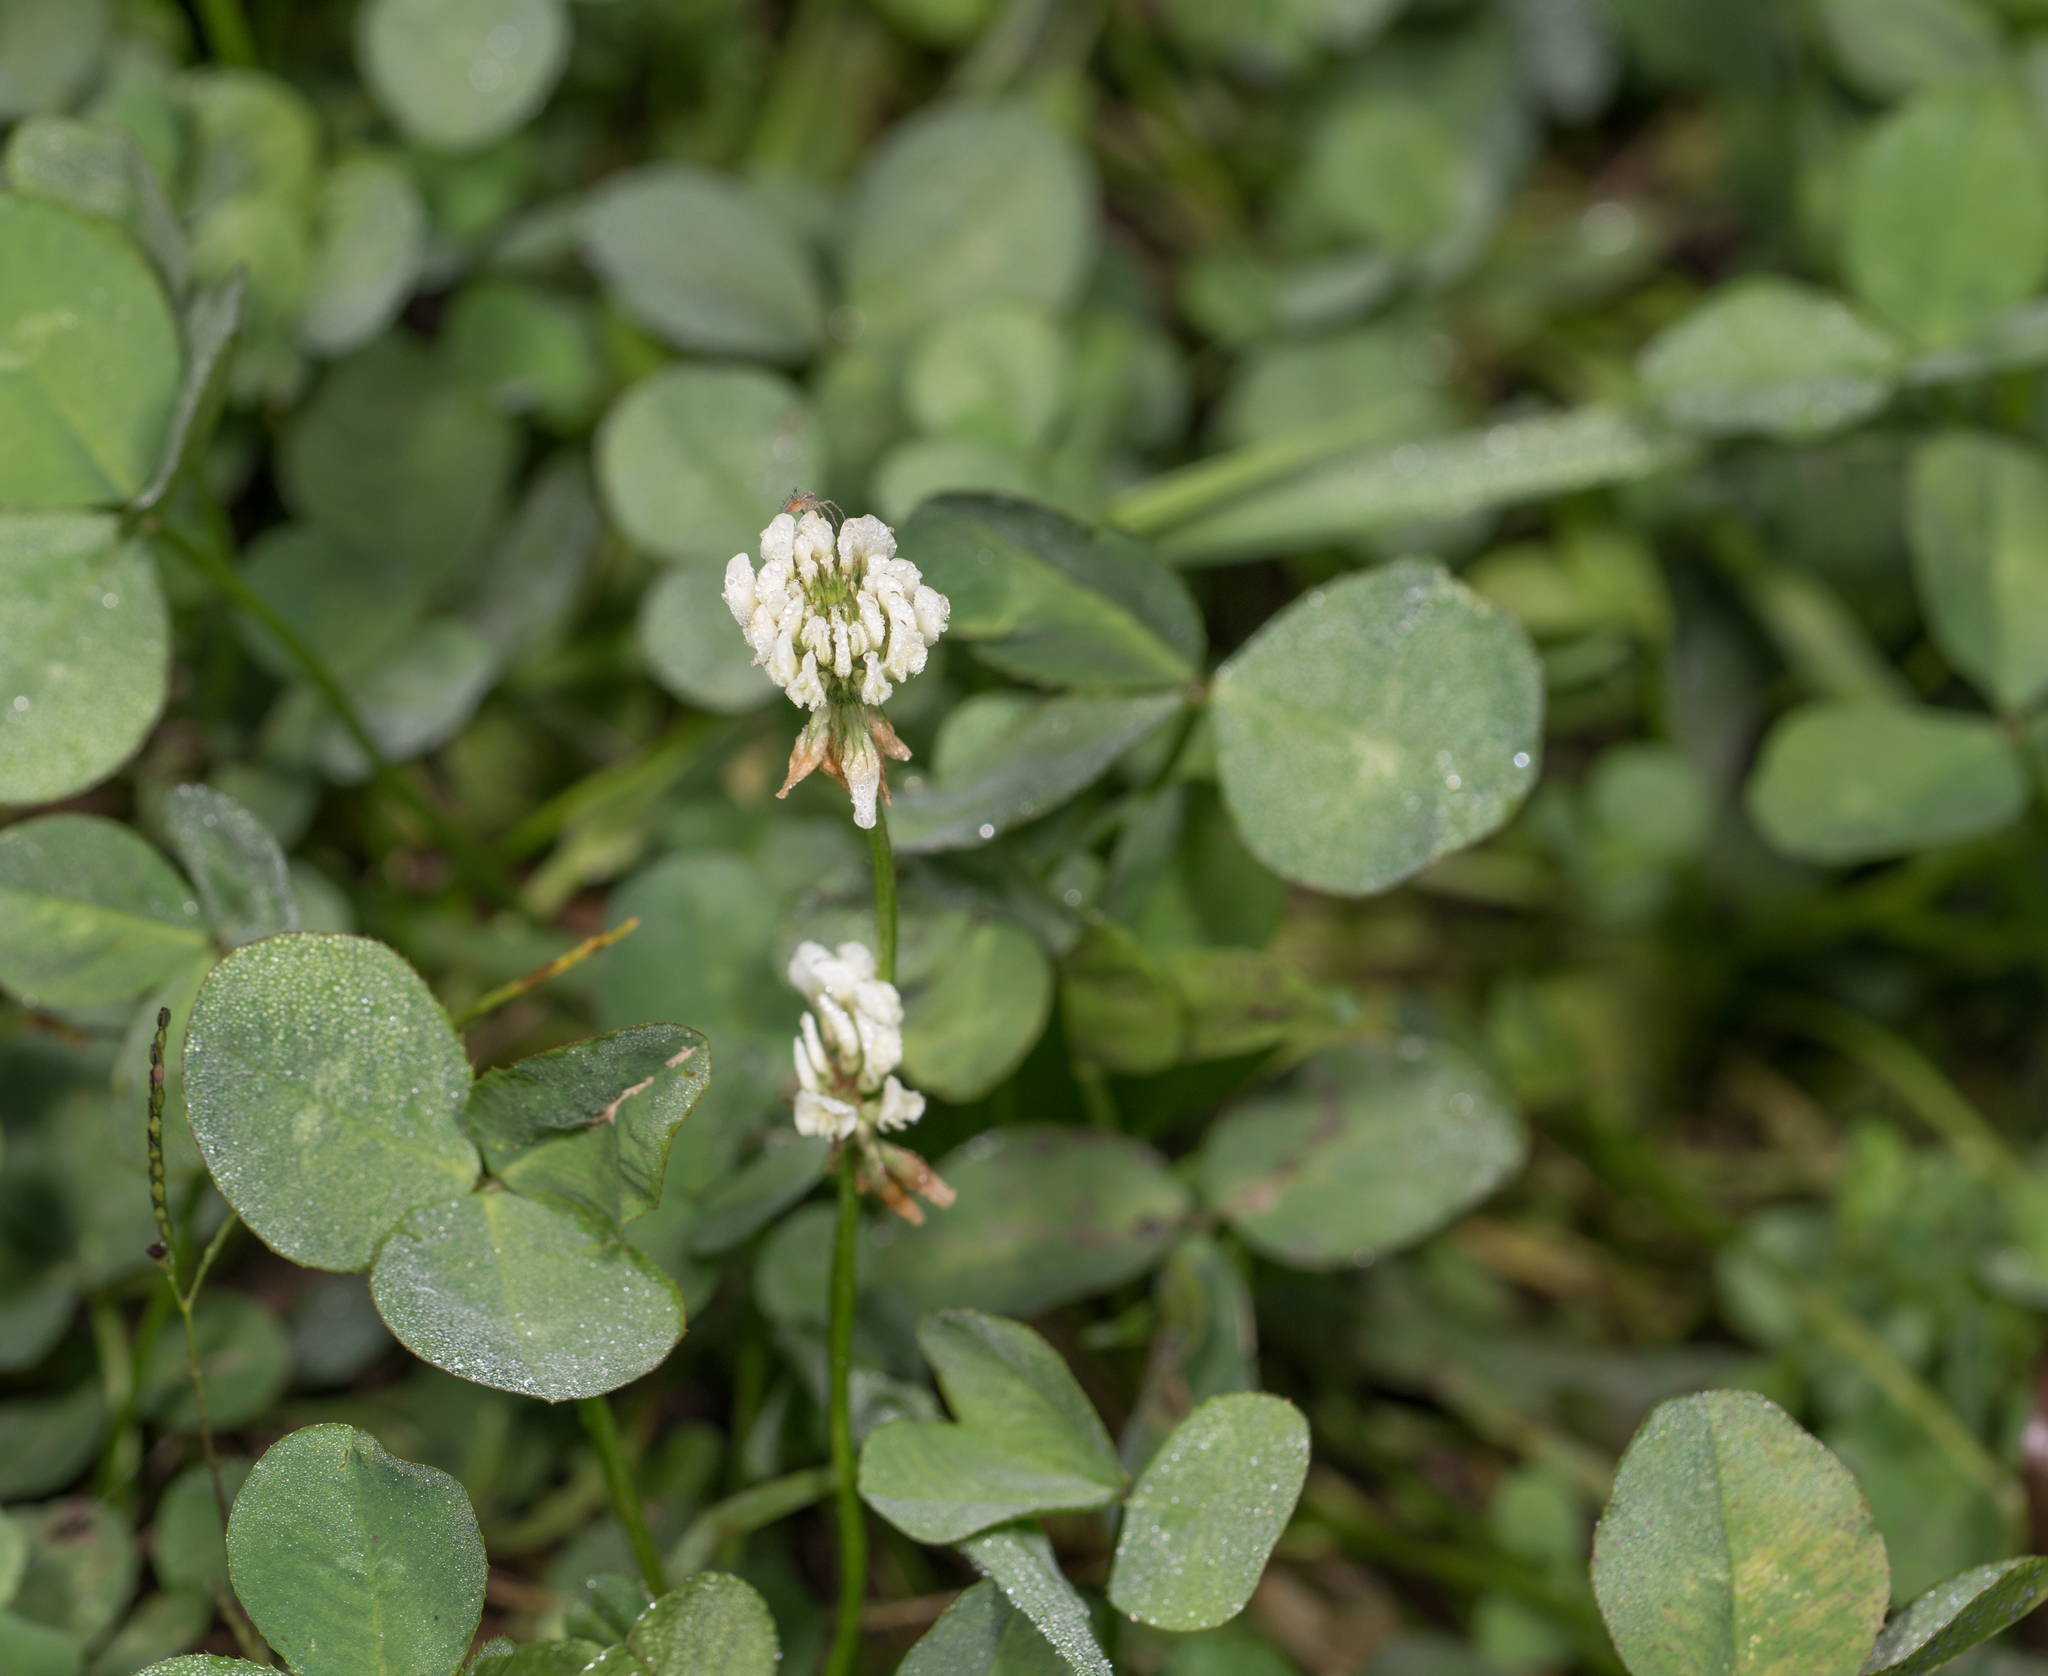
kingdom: Plantae
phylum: Tracheophyta
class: Magnoliopsida
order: Fabales
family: Fabaceae
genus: Trifolium
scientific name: Trifolium repens
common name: White clover
